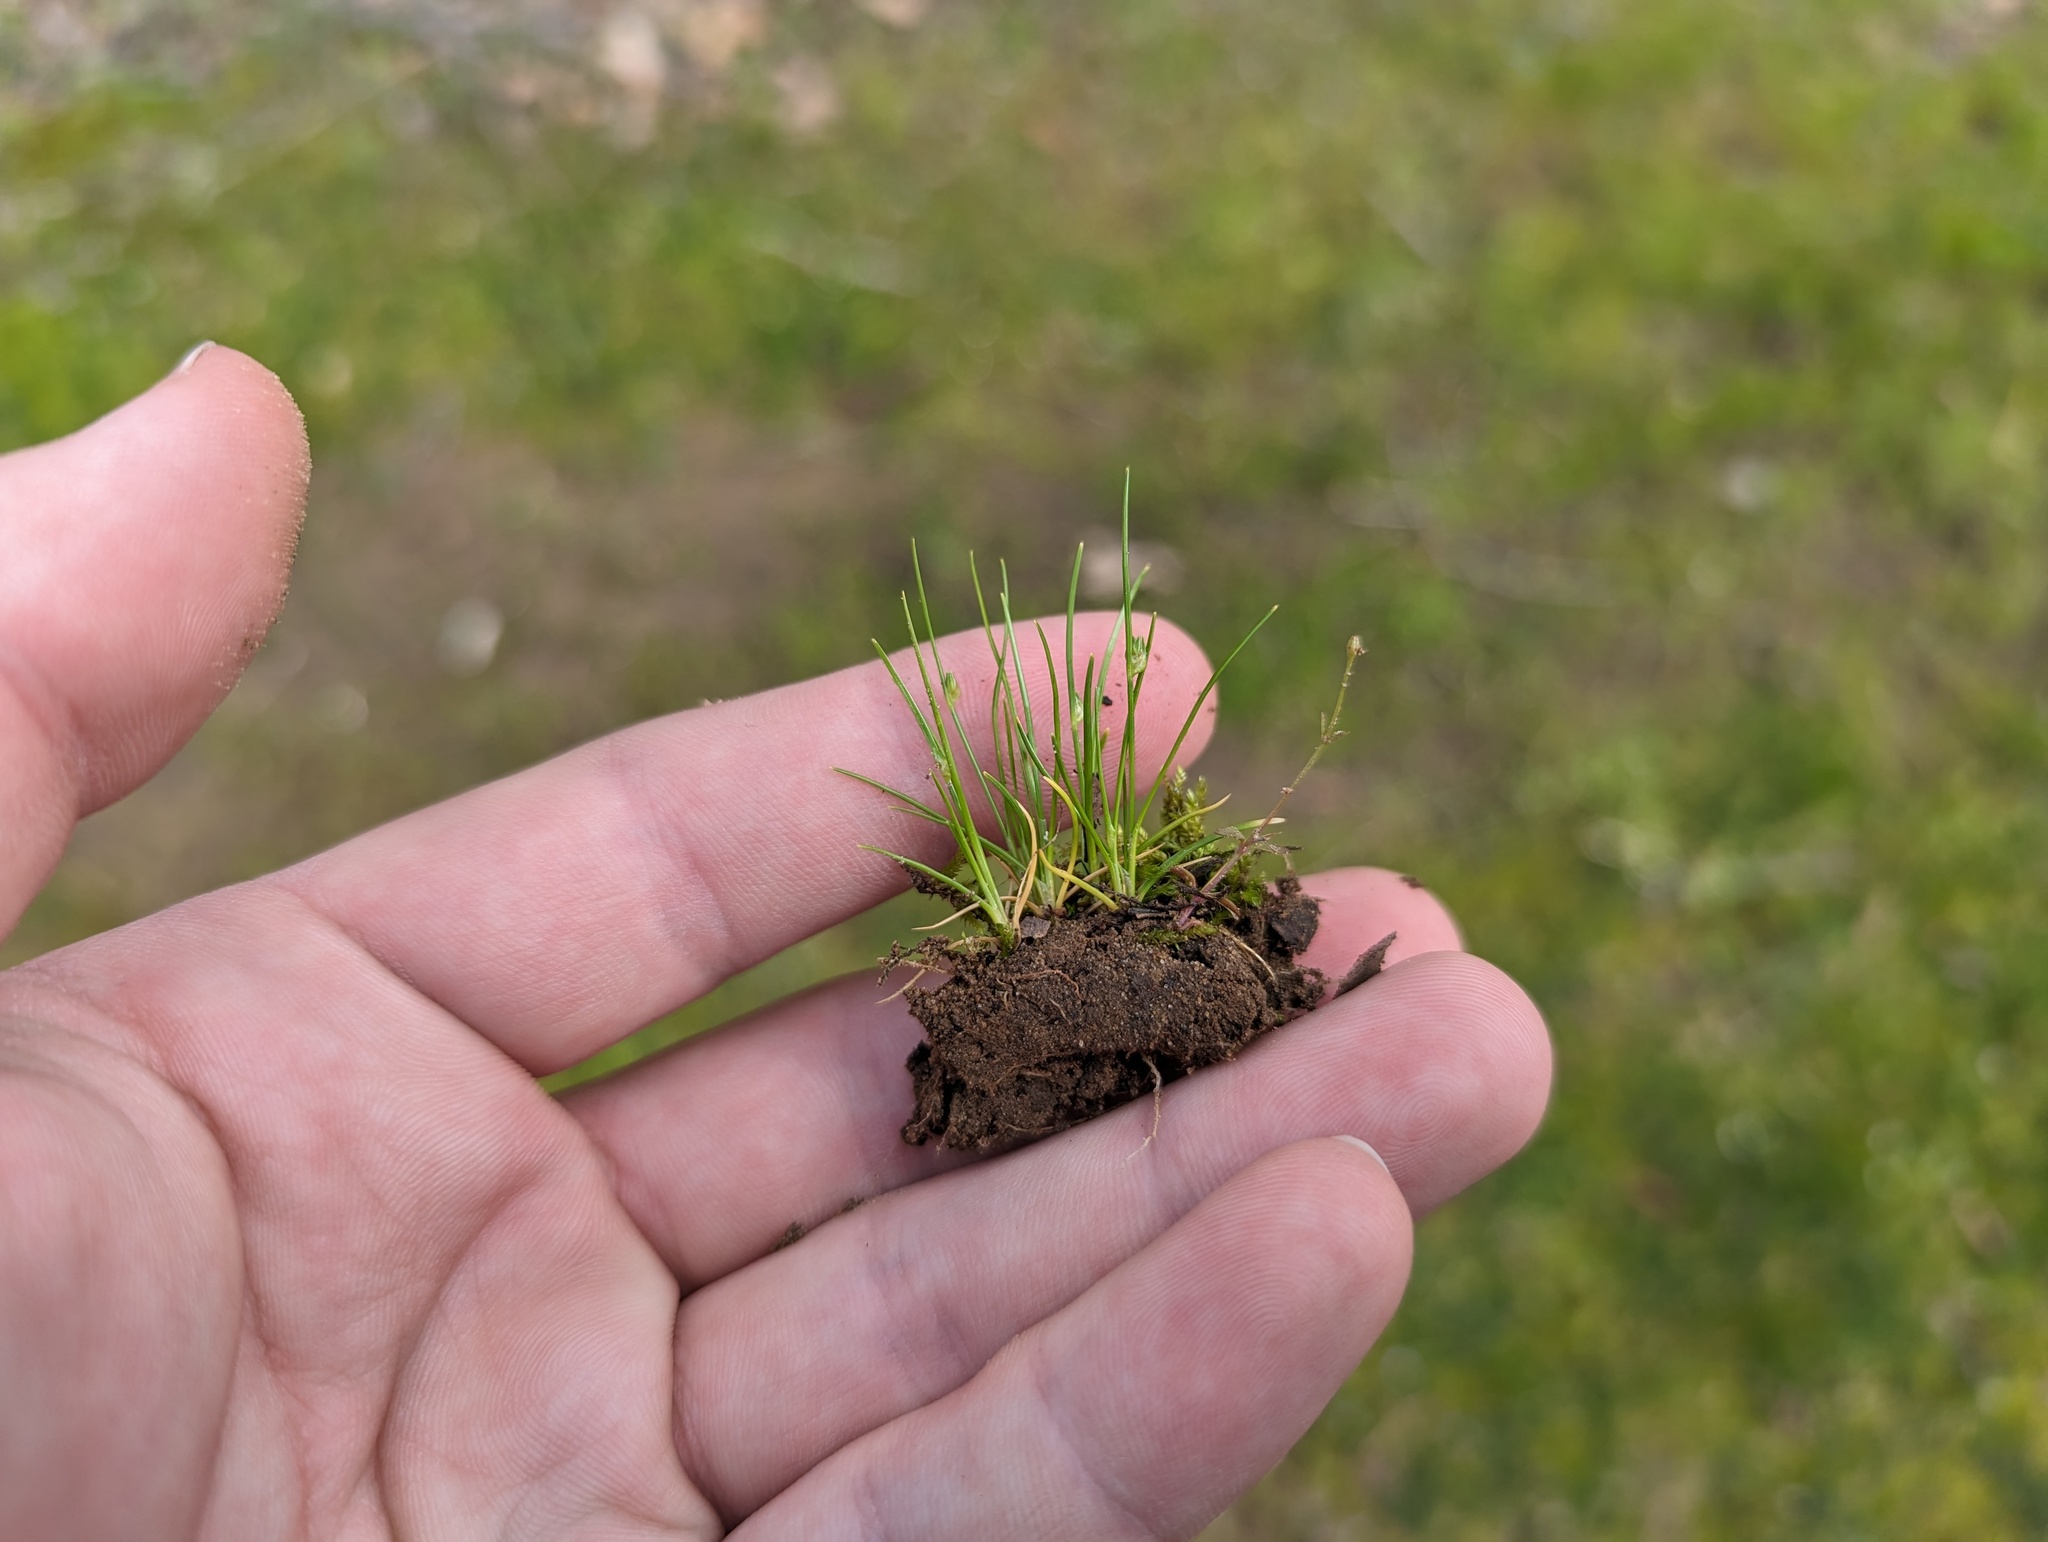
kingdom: Plantae
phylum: Tracheophyta
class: Liliopsida
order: Poales
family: Cyperaceae
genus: Isolepis
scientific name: Isolepis carinata
